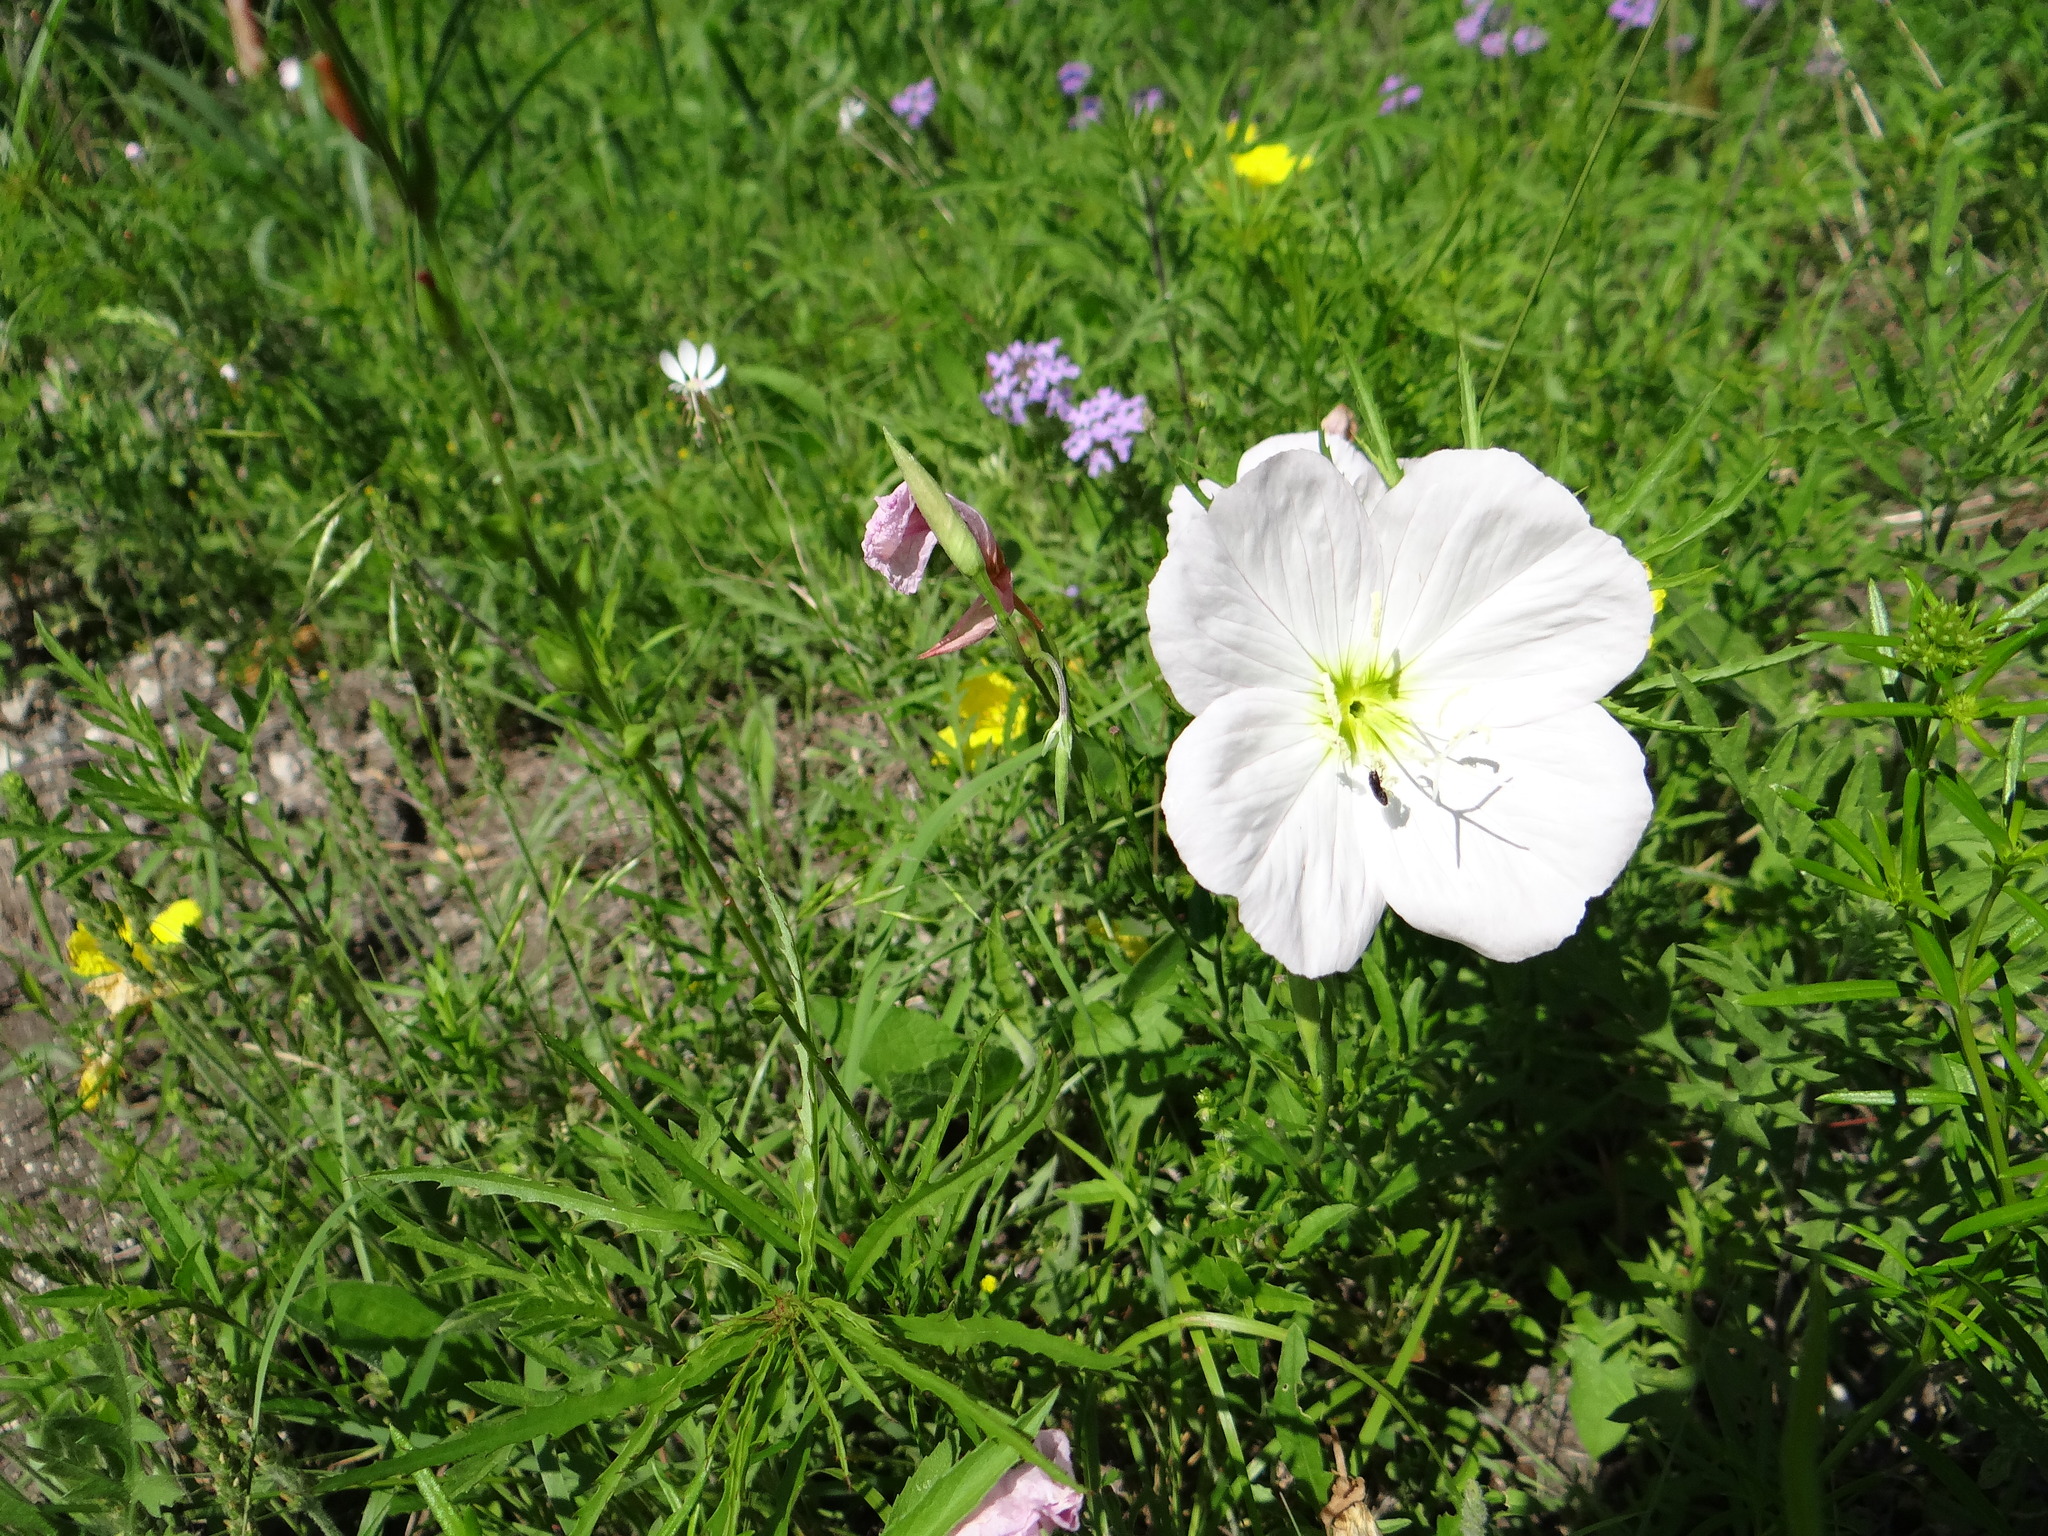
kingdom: Plantae
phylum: Tracheophyta
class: Magnoliopsida
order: Myrtales
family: Onagraceae
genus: Oenothera
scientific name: Oenothera speciosa
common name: White evening-primrose
